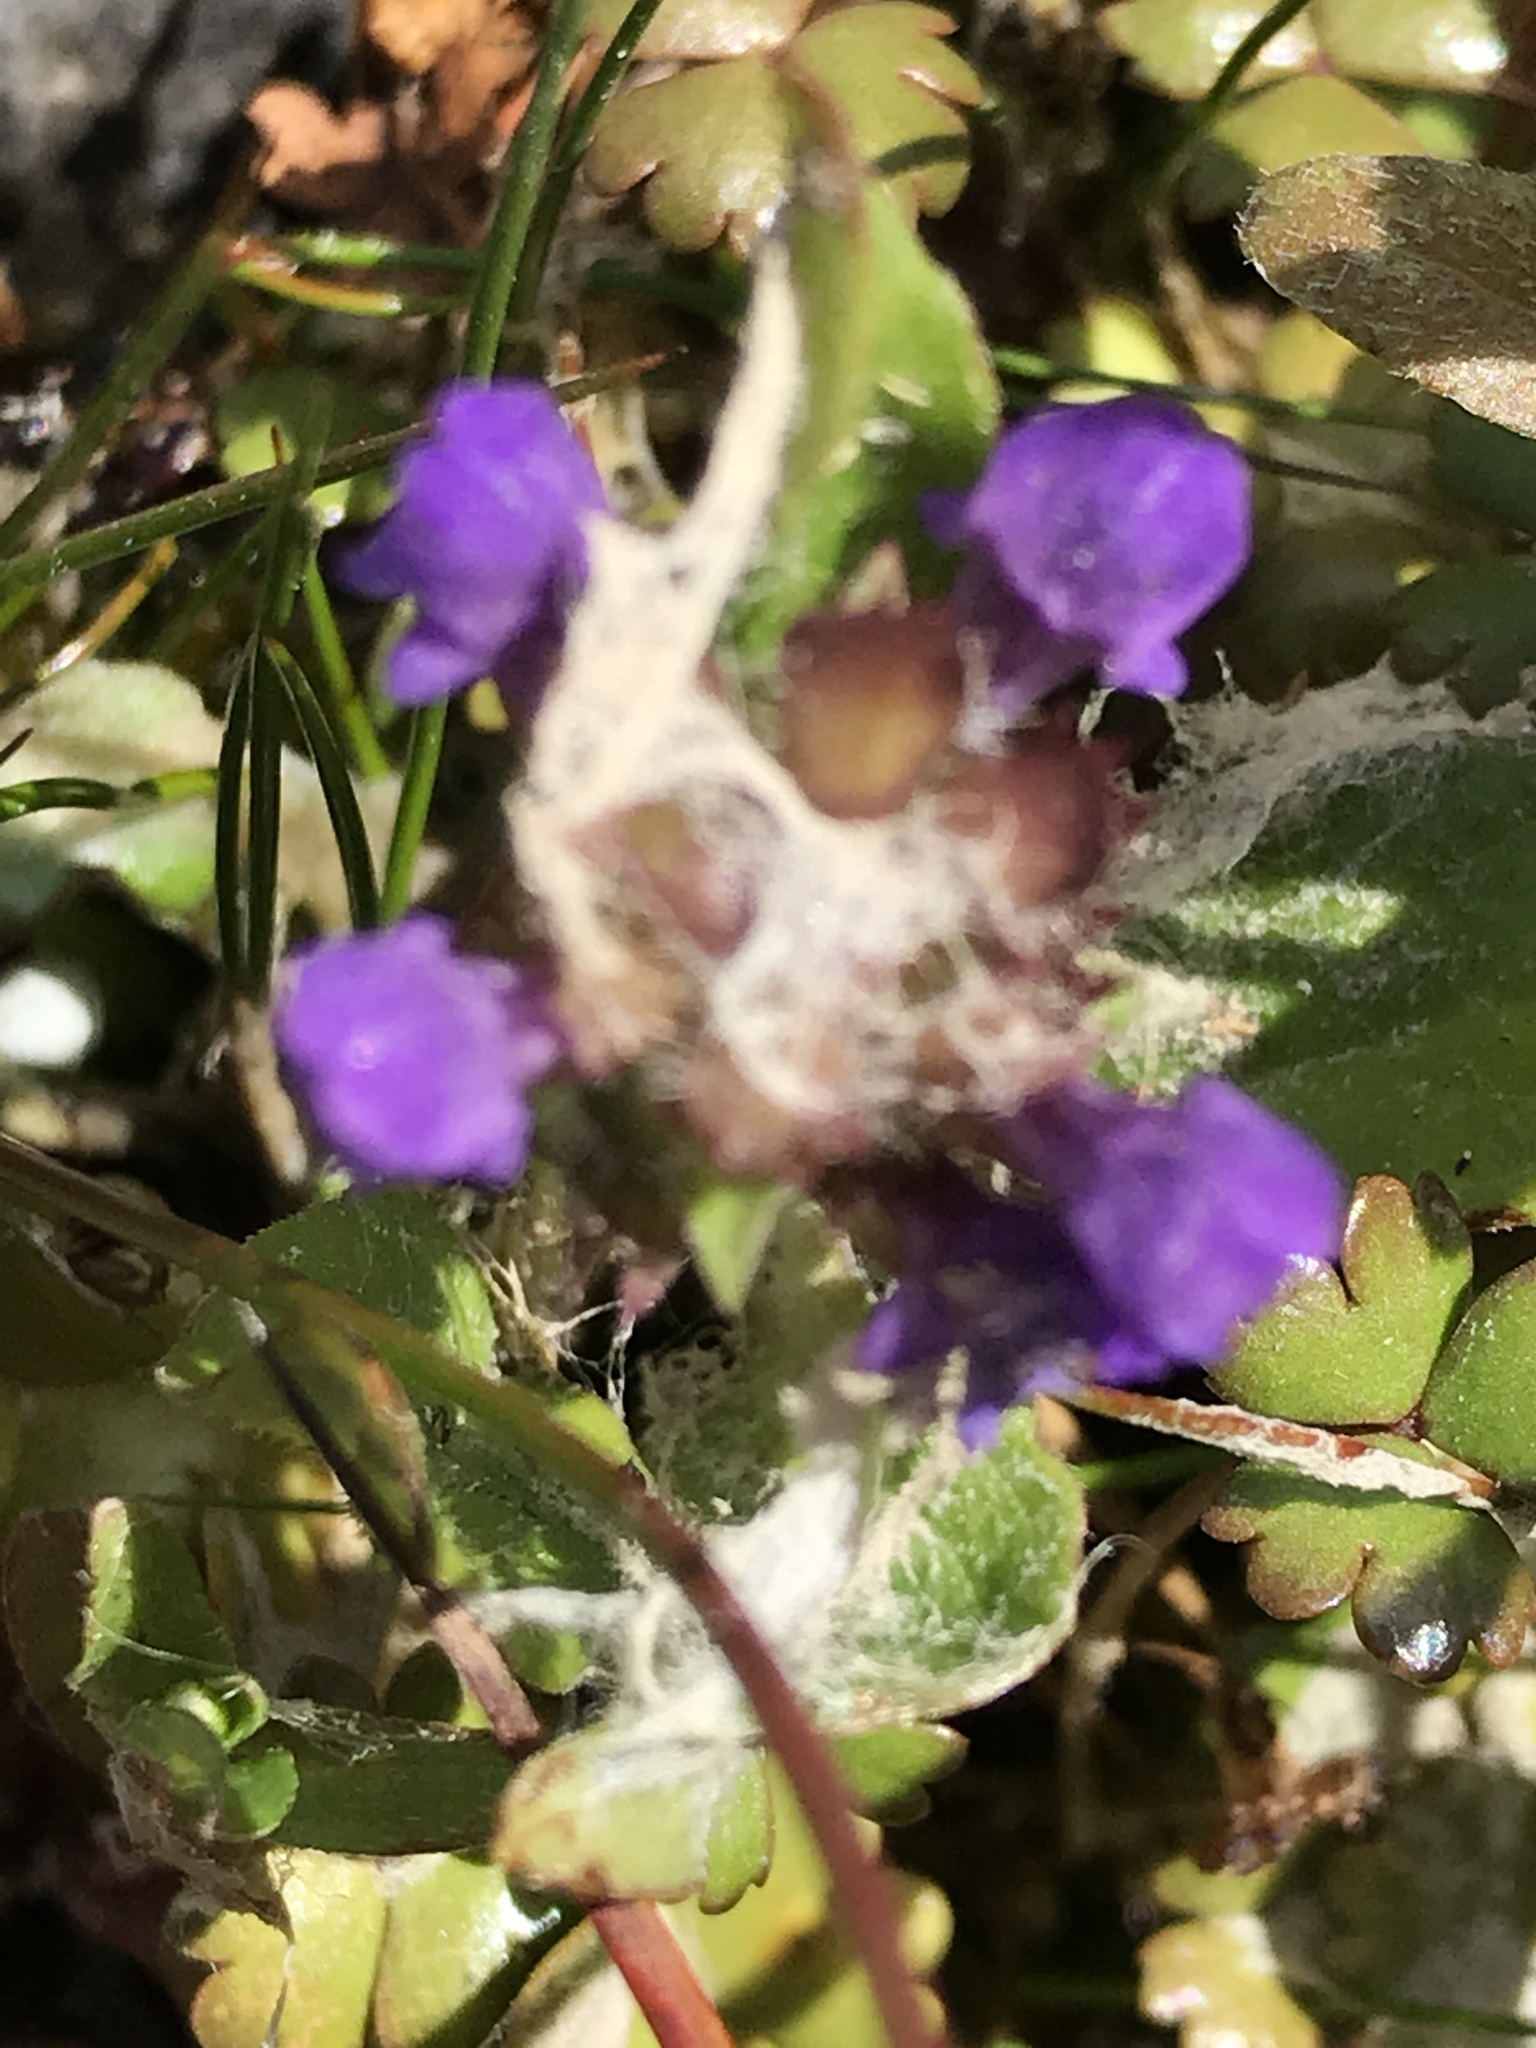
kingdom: Plantae
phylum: Tracheophyta
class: Magnoliopsida
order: Lamiales
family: Lamiaceae
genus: Prunella
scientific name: Prunella vulgaris
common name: Heal-all
